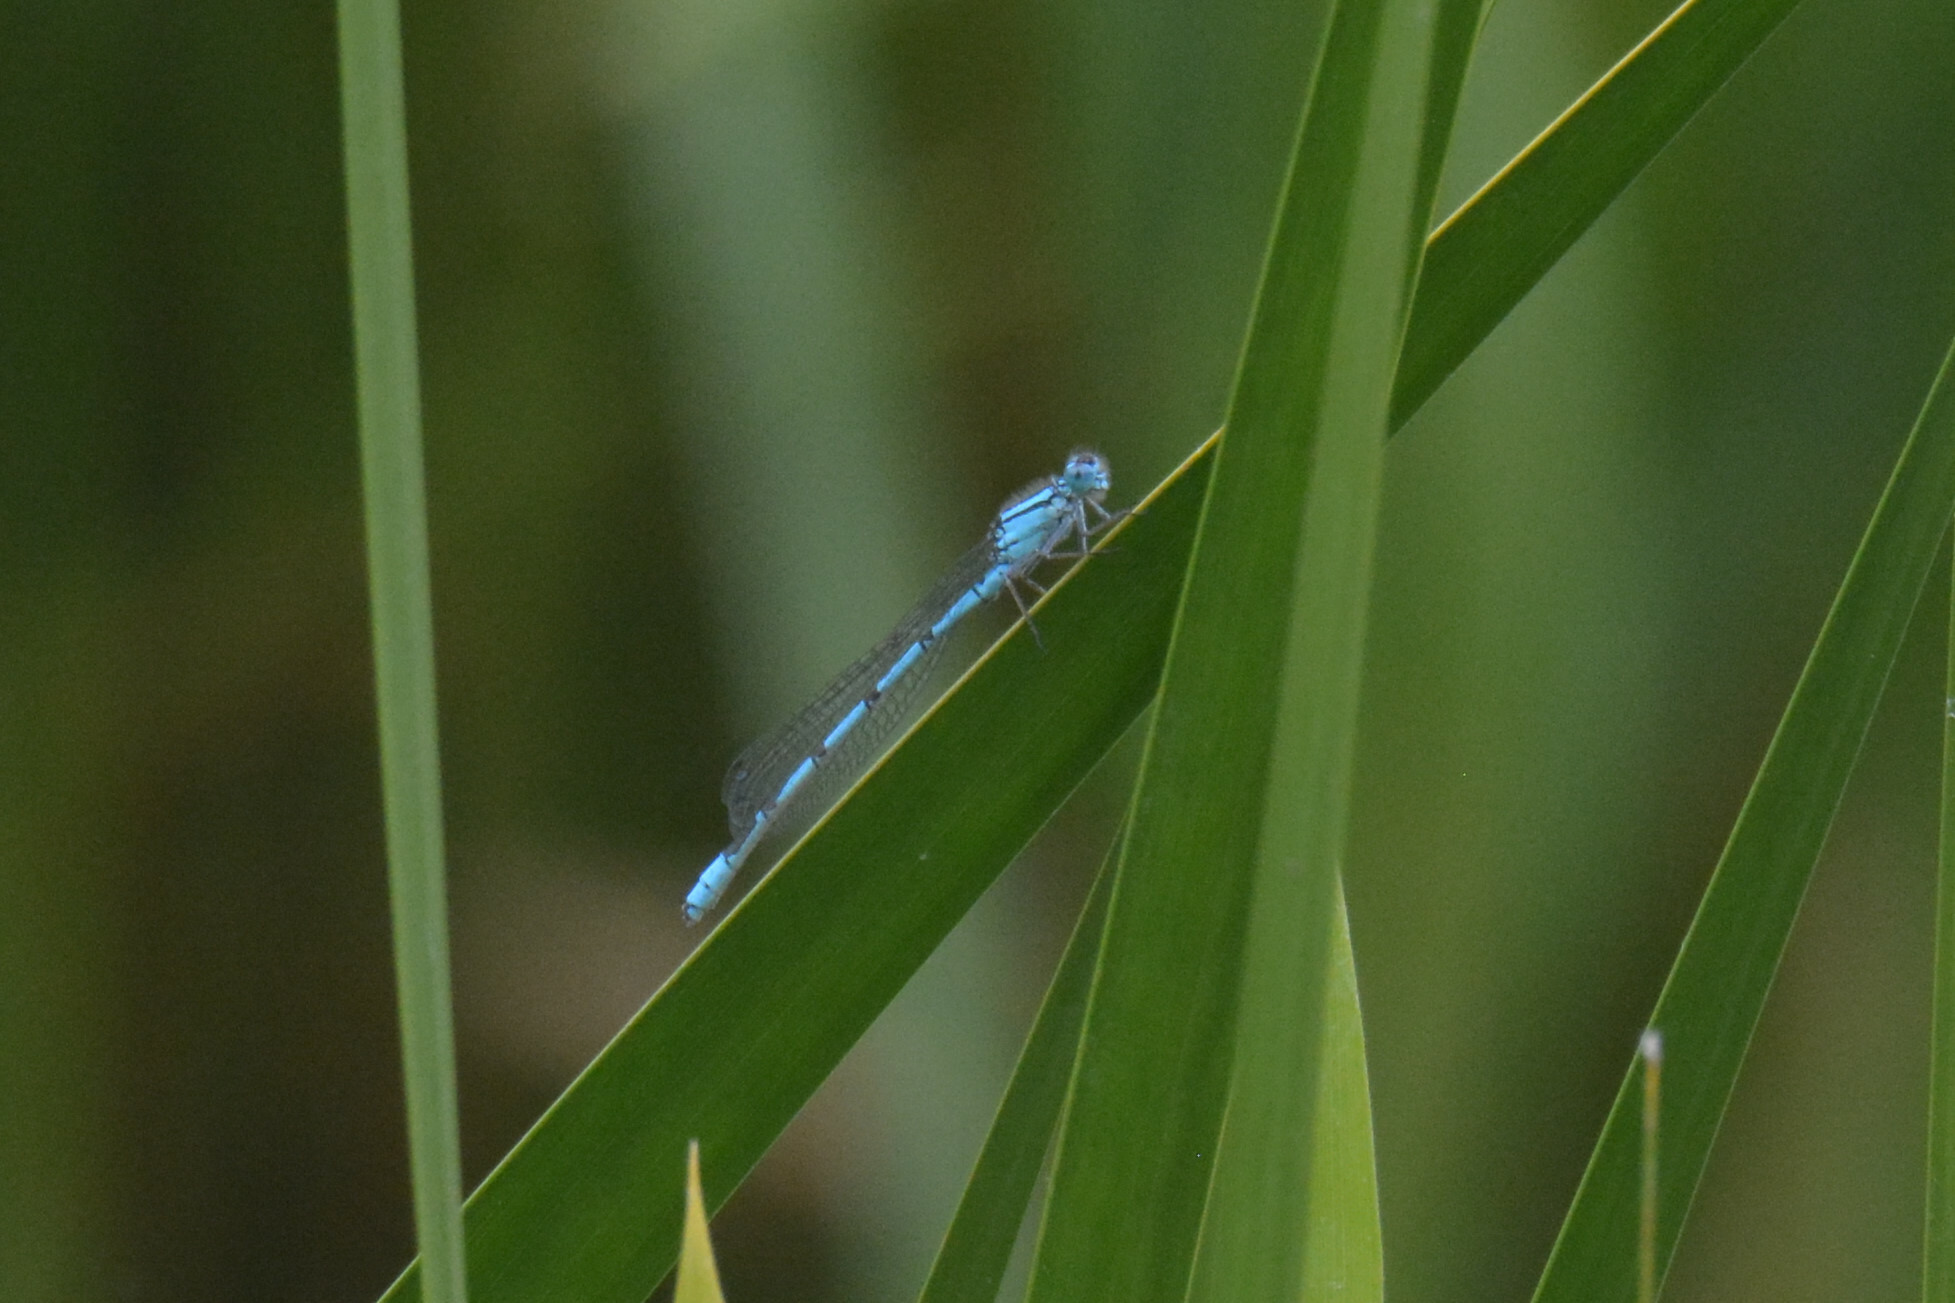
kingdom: Animalia
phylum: Arthropoda
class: Insecta
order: Odonata
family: Coenagrionidae
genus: Enallagma
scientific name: Enallagma cyathigerum
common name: Common blue damselfly
